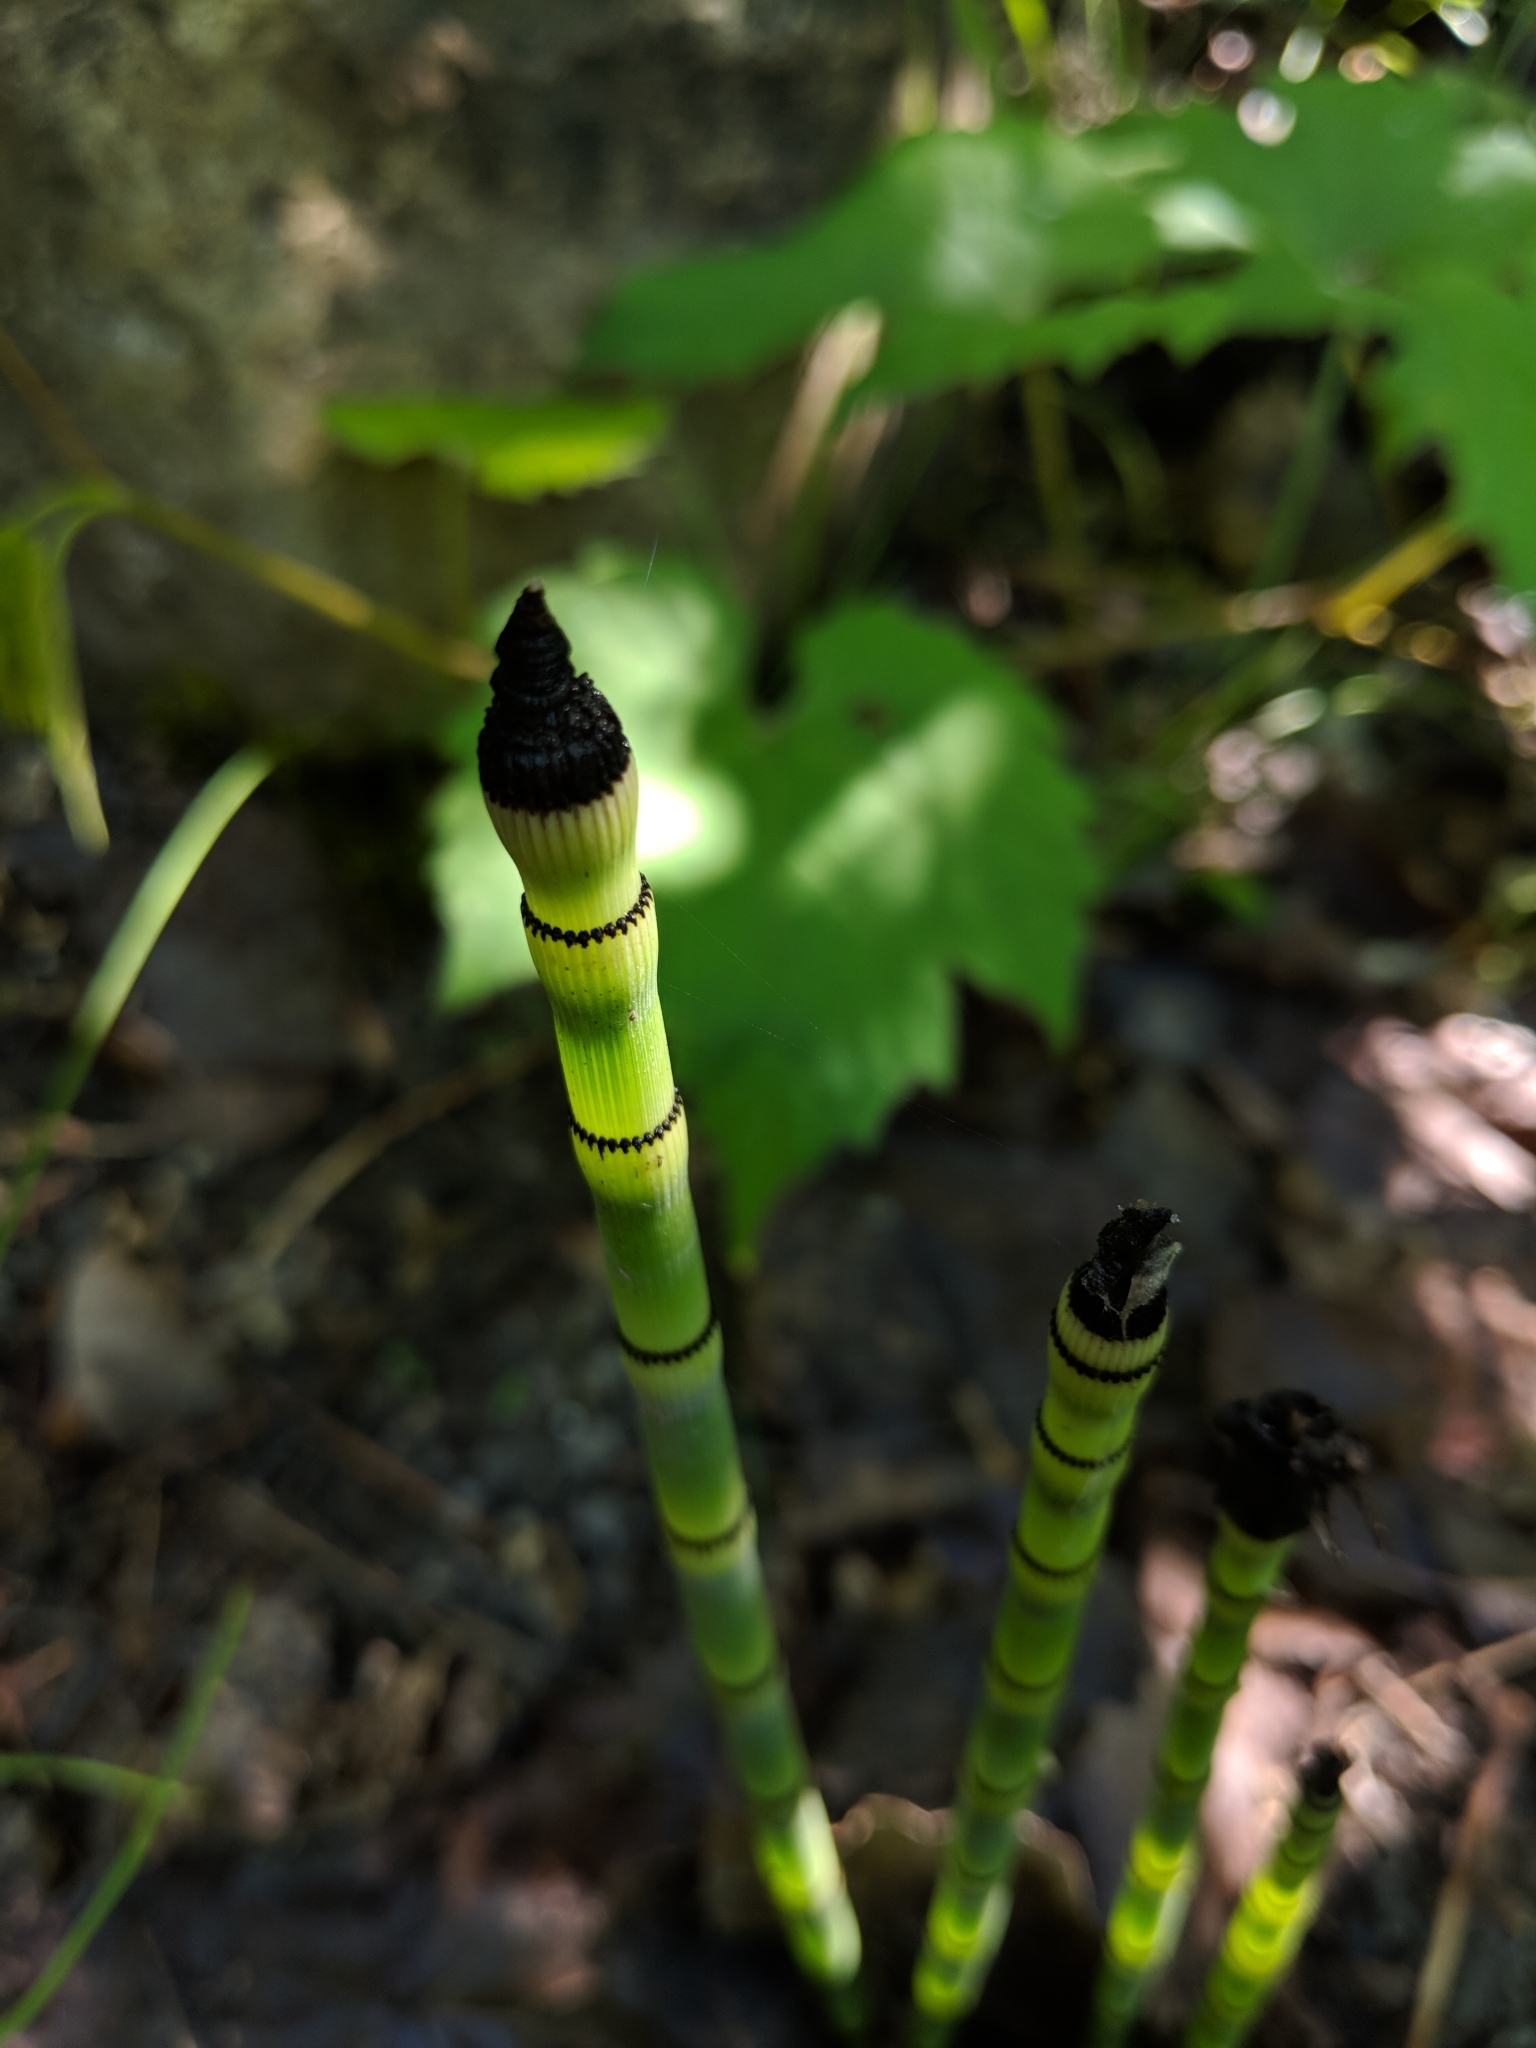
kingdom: Plantae
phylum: Tracheophyta
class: Polypodiopsida
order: Equisetales
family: Equisetaceae
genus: Equisetum
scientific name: Equisetum hyemale
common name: Rough horsetail
